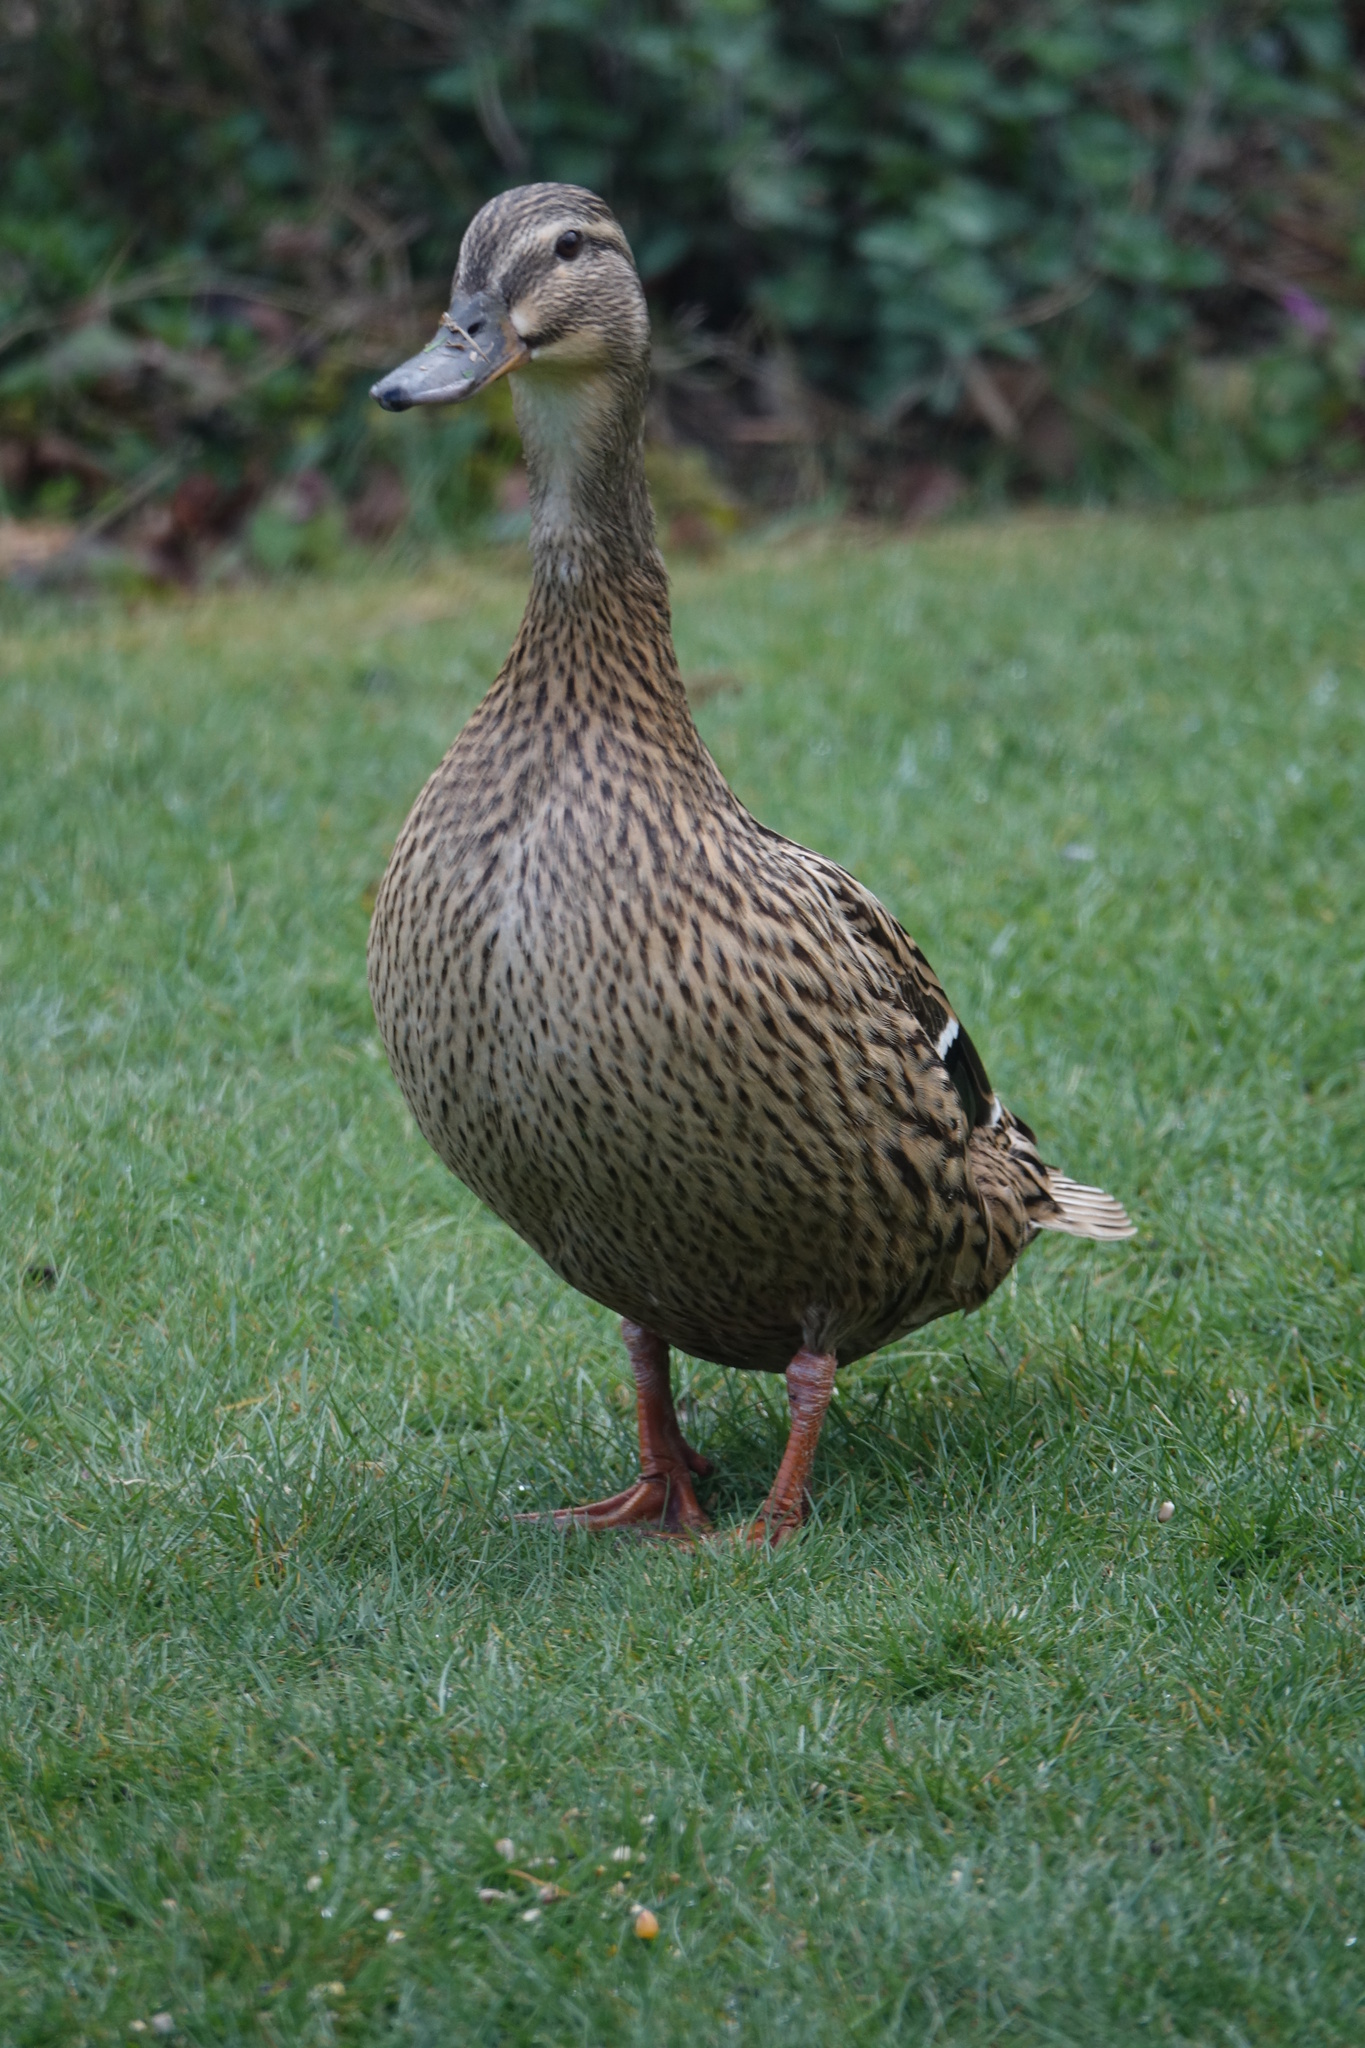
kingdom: Animalia
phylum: Chordata
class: Aves
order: Anseriformes
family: Anatidae
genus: Anas
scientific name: Anas platyrhynchos
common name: Mallard
